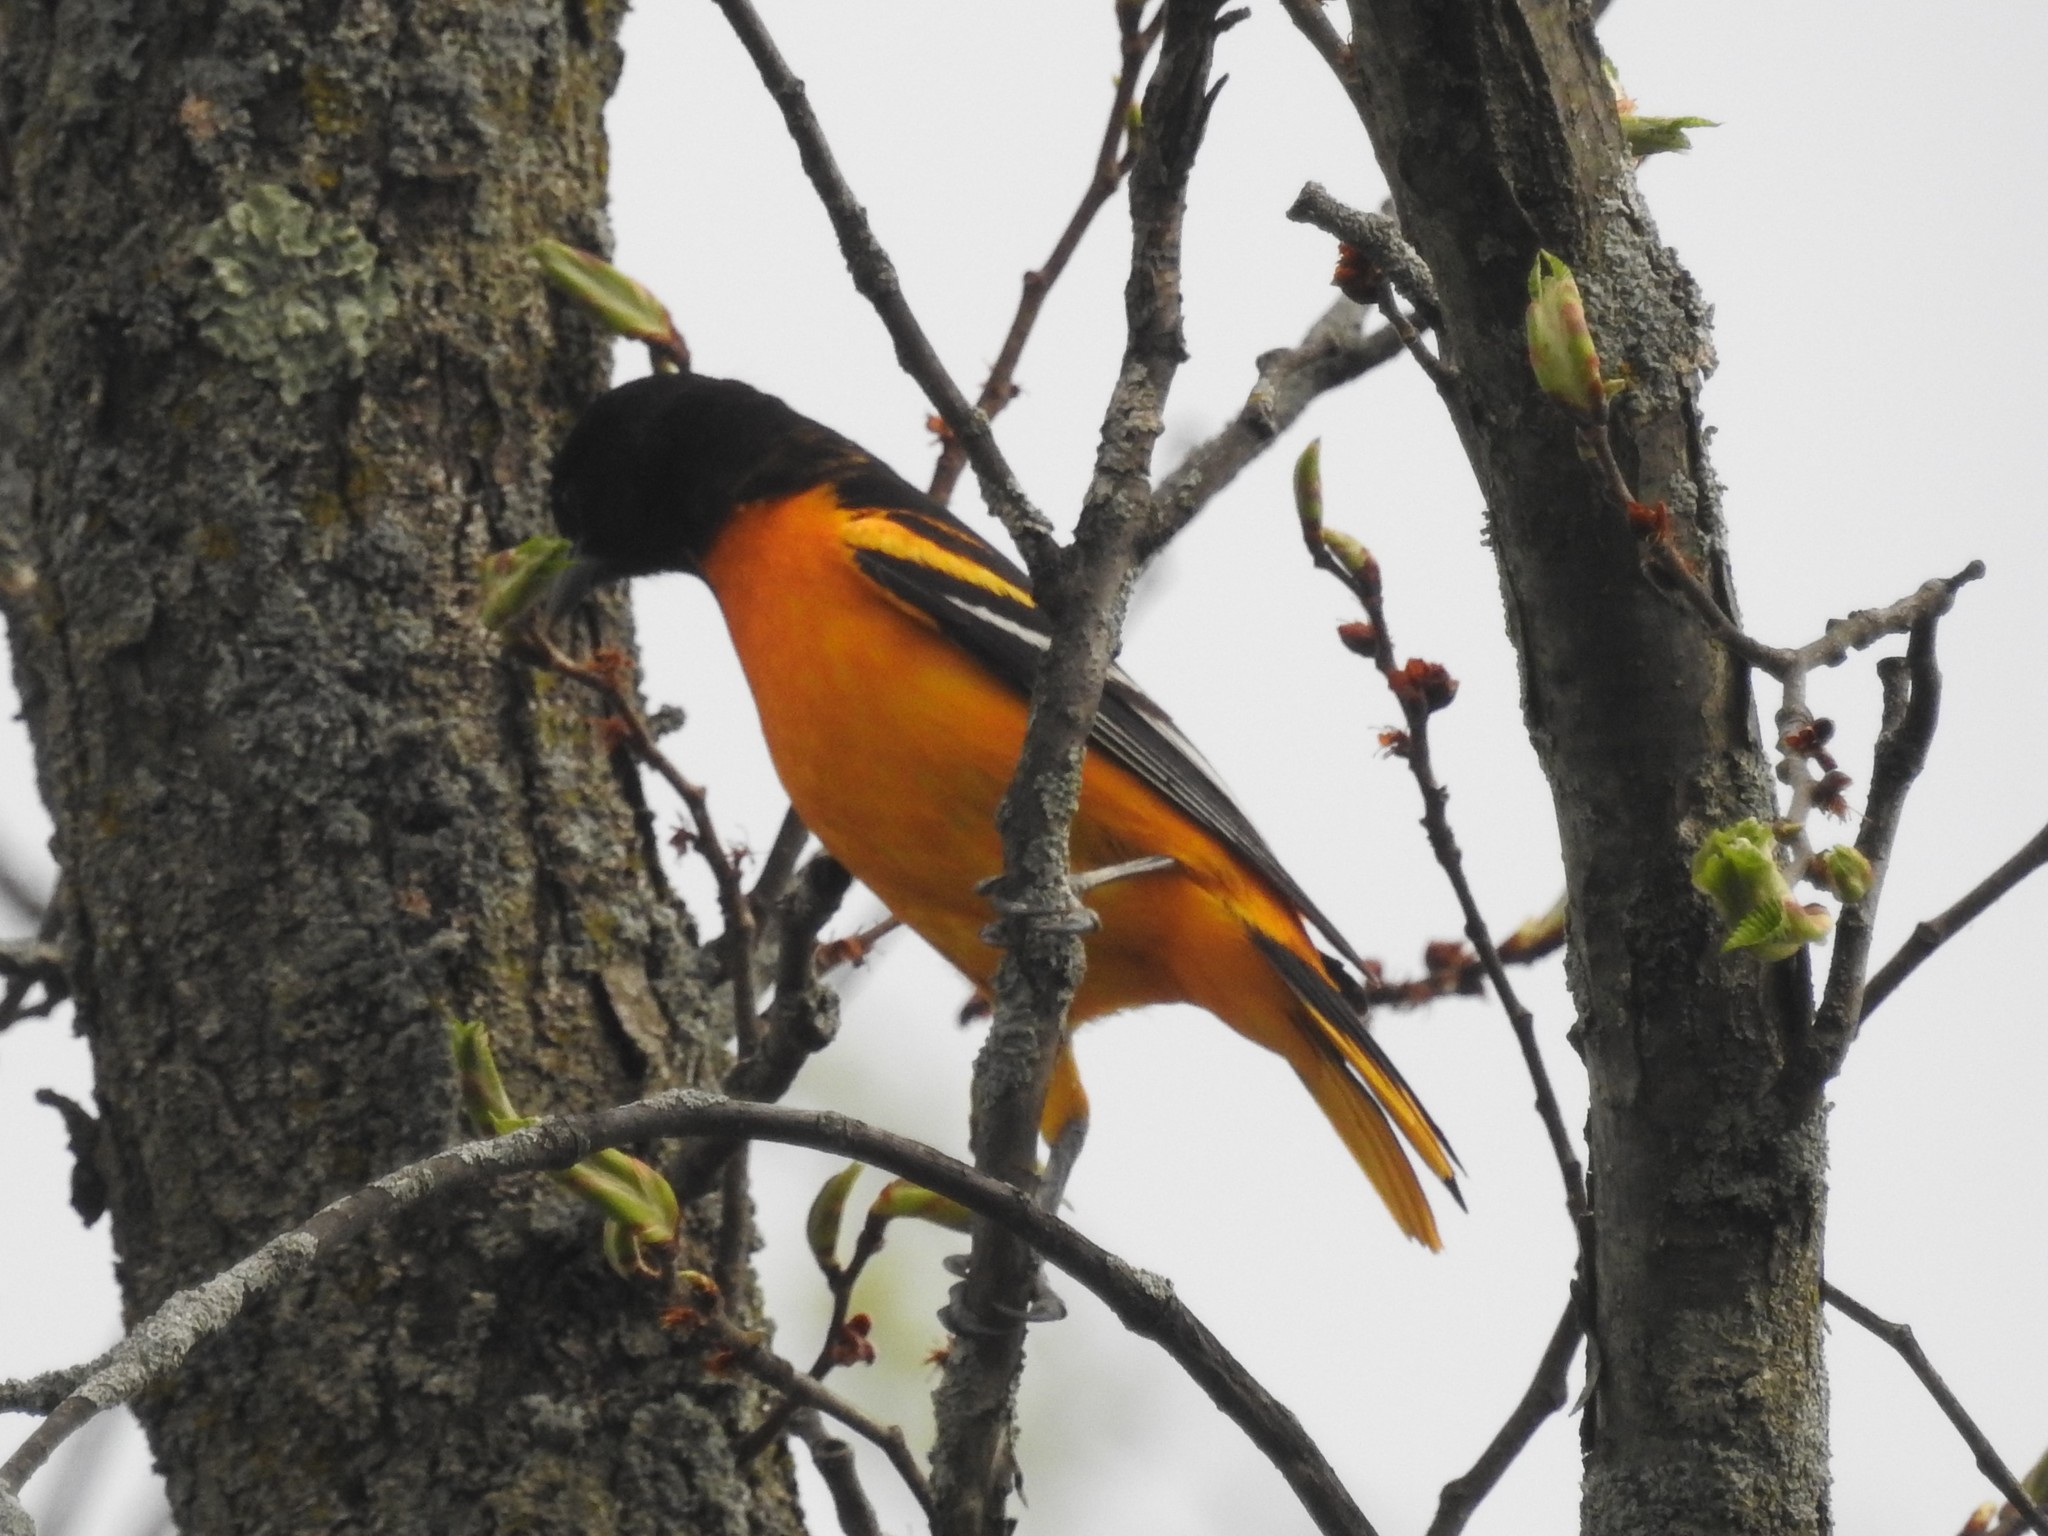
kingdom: Animalia
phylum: Chordata
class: Aves
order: Passeriformes
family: Icteridae
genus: Icterus
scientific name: Icterus galbula
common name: Baltimore oriole
